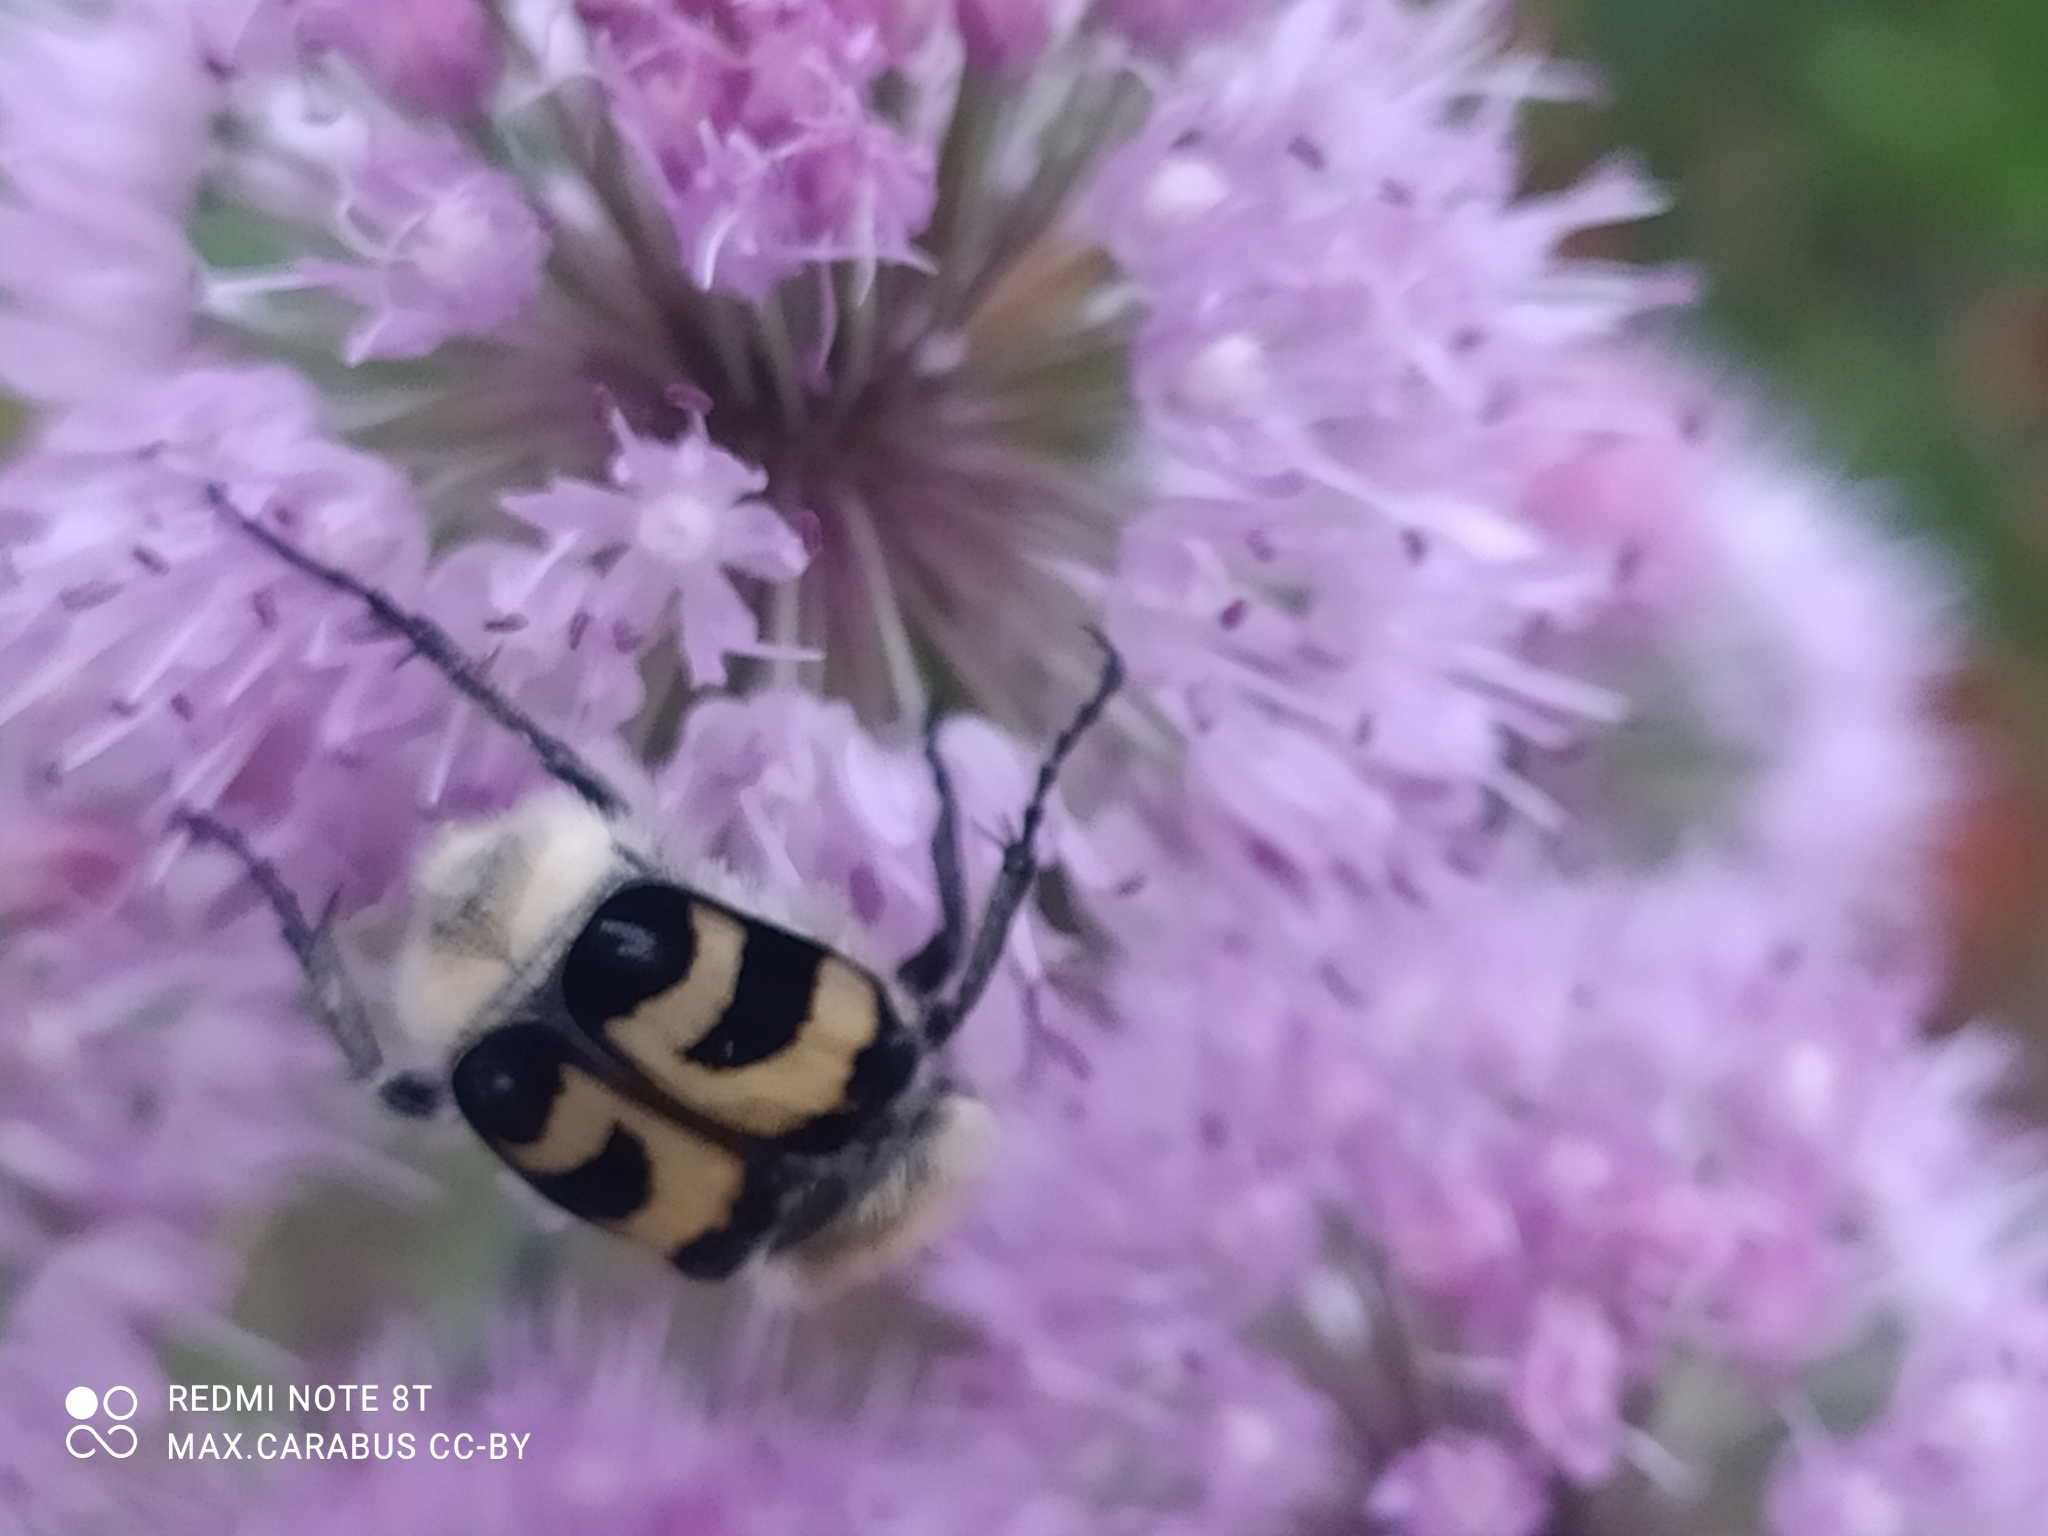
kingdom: Animalia
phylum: Arthropoda
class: Insecta
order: Coleoptera
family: Scarabaeidae
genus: Trichius
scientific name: Trichius fasciatus
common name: Bee beetle
